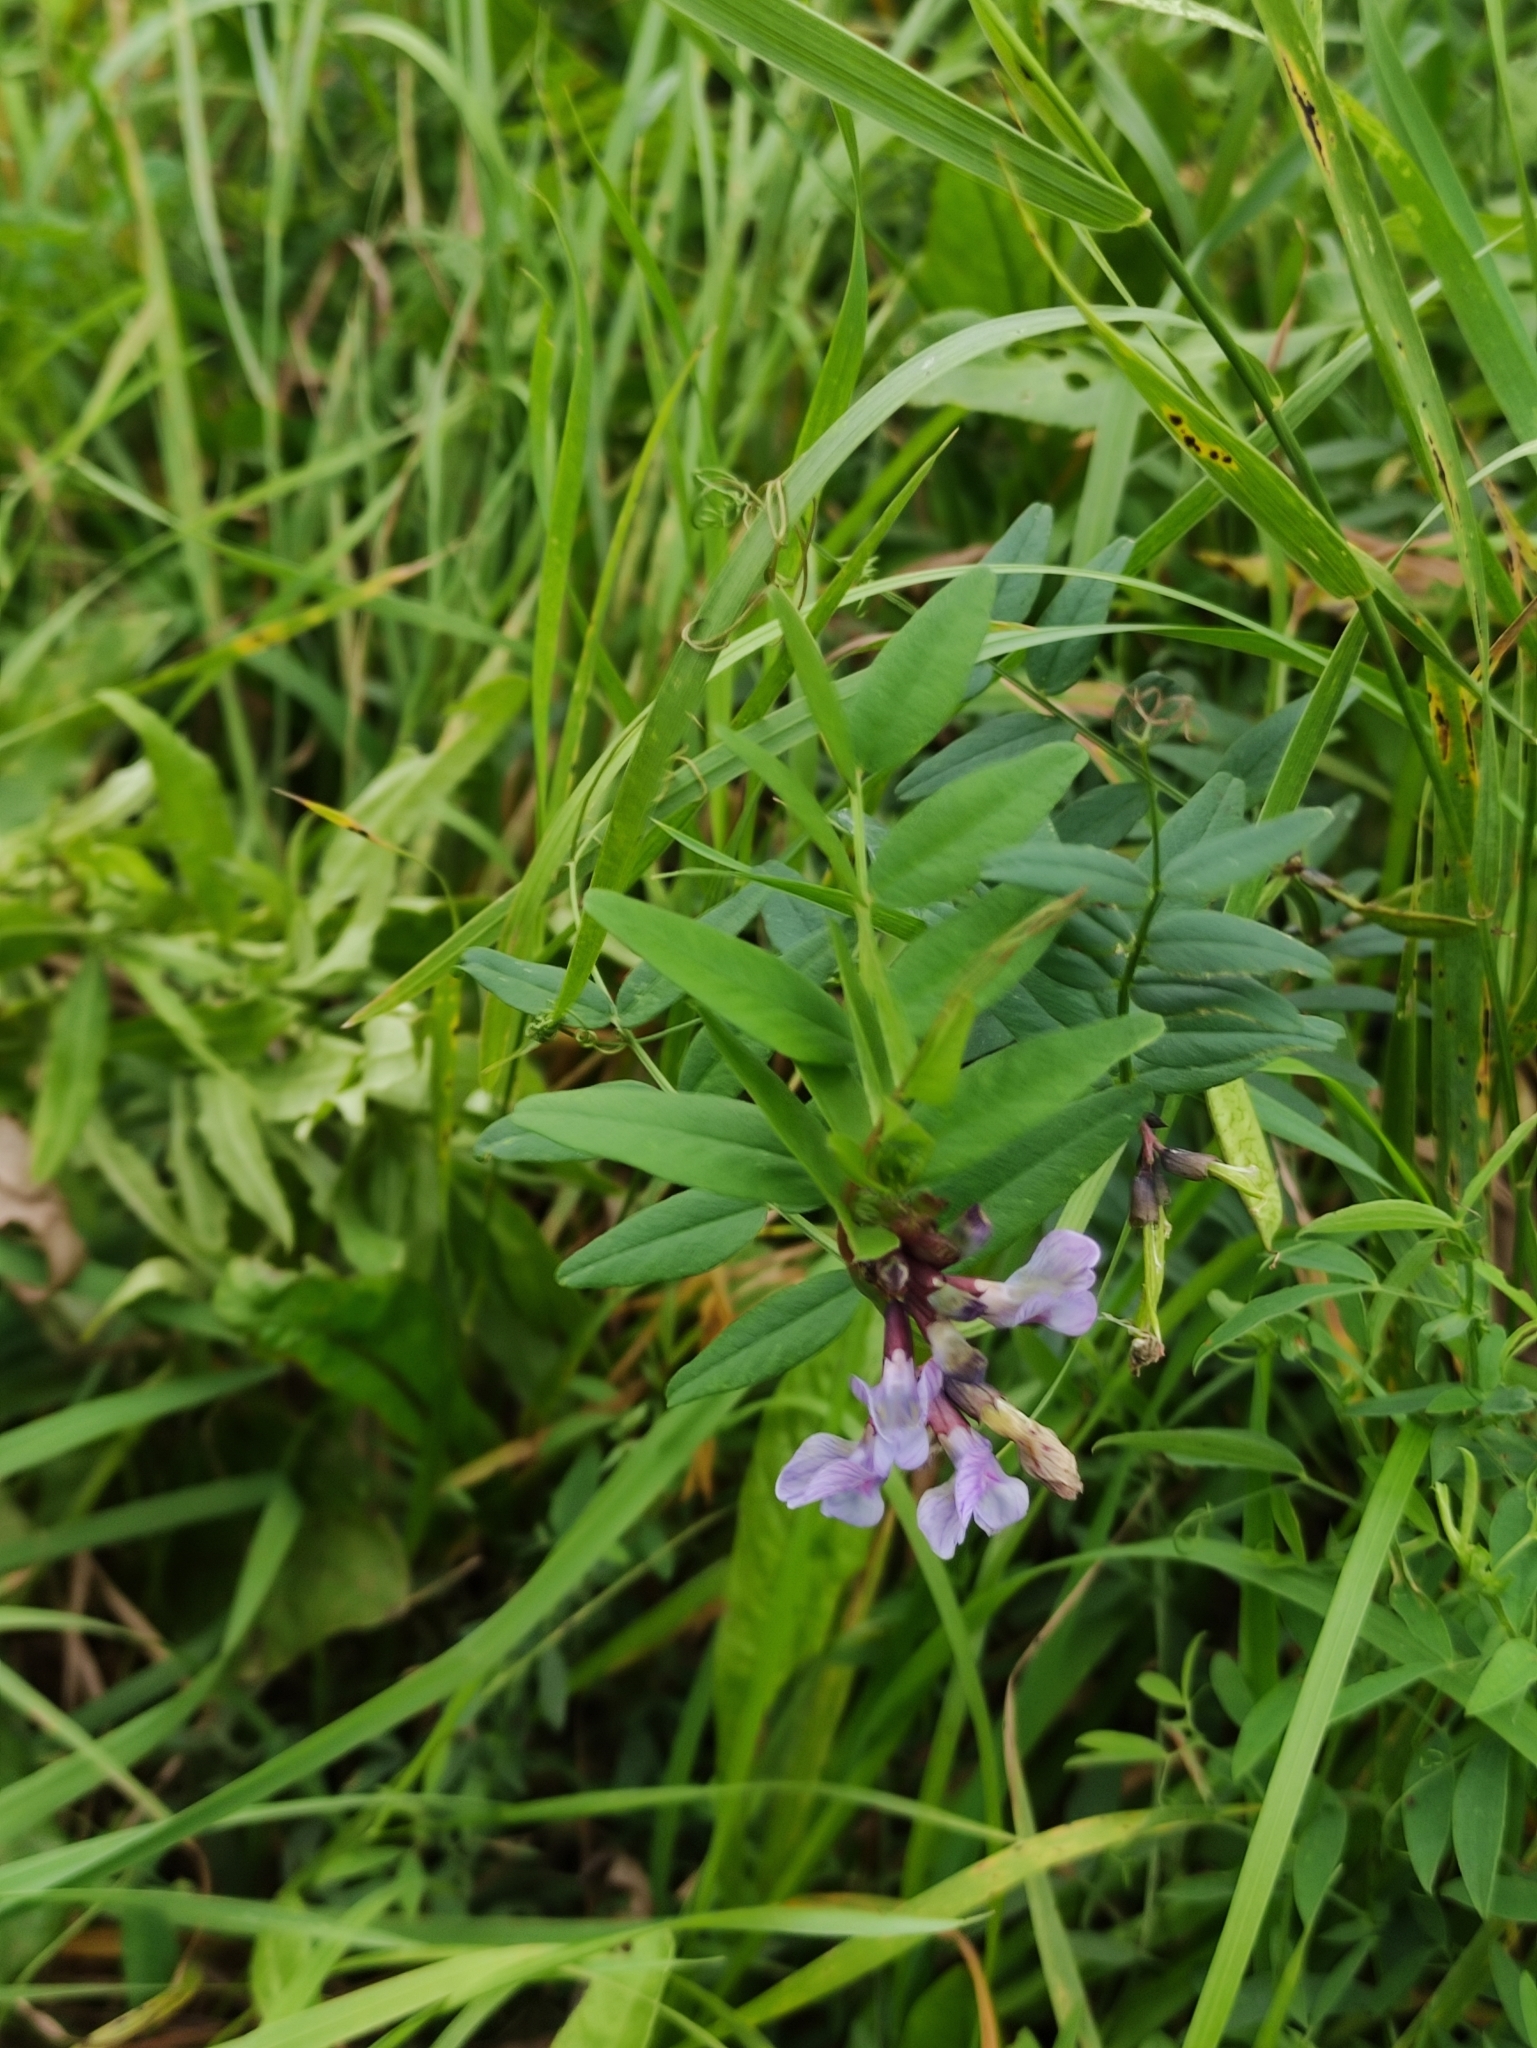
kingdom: Plantae
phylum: Tracheophyta
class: Magnoliopsida
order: Fabales
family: Fabaceae
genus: Vicia
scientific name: Vicia sepium
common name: Bush vetch
